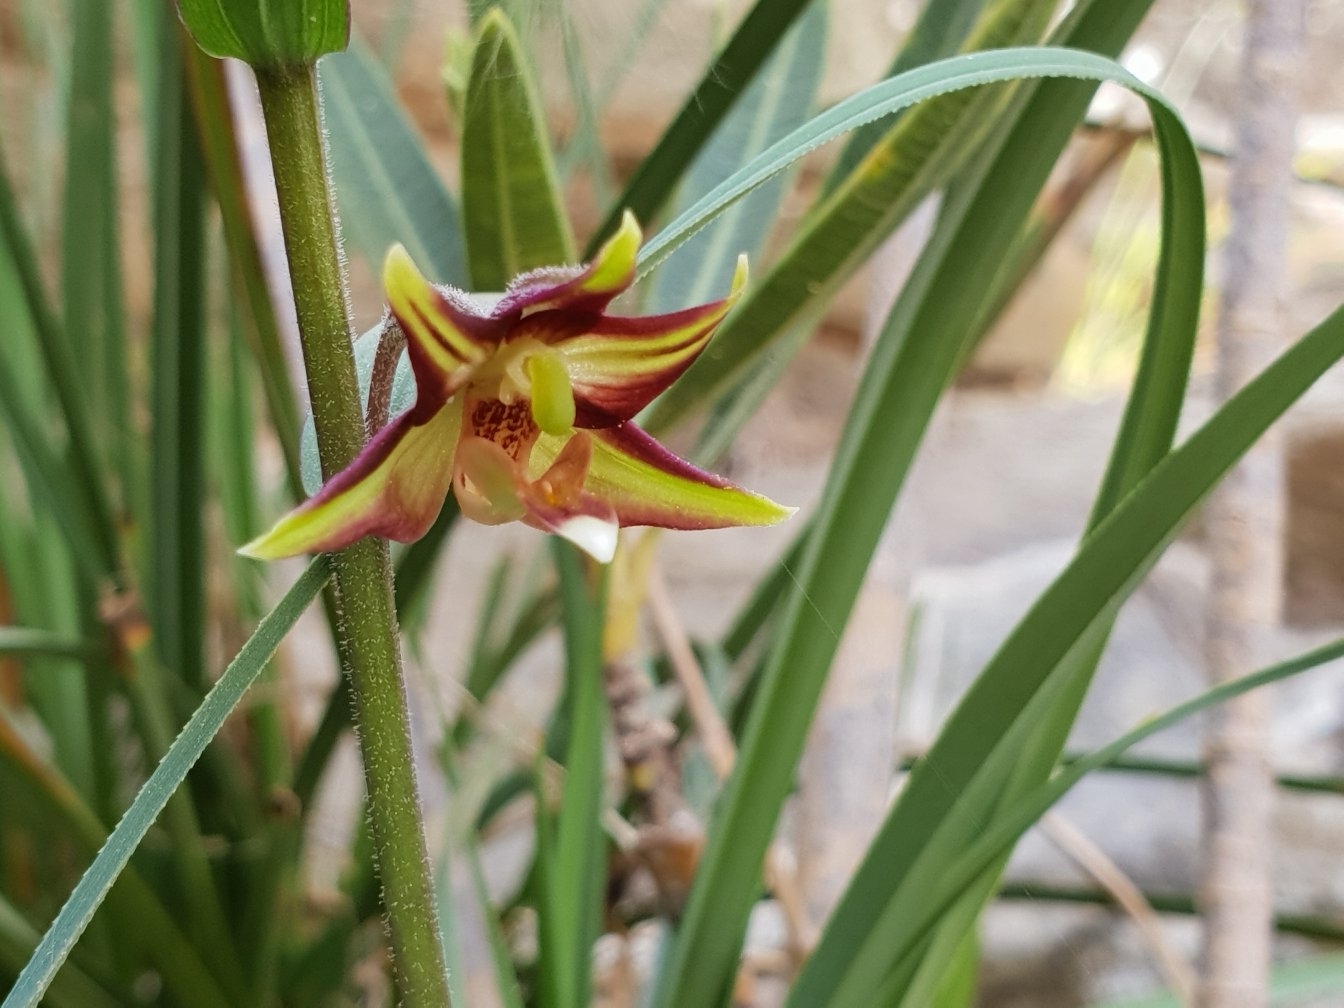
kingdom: Plantae
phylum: Tracheophyta
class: Liliopsida
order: Asparagales
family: Orchidaceae
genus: Epipactis
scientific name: Epipactis veratrifolia
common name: Eastern marsh helleborine
